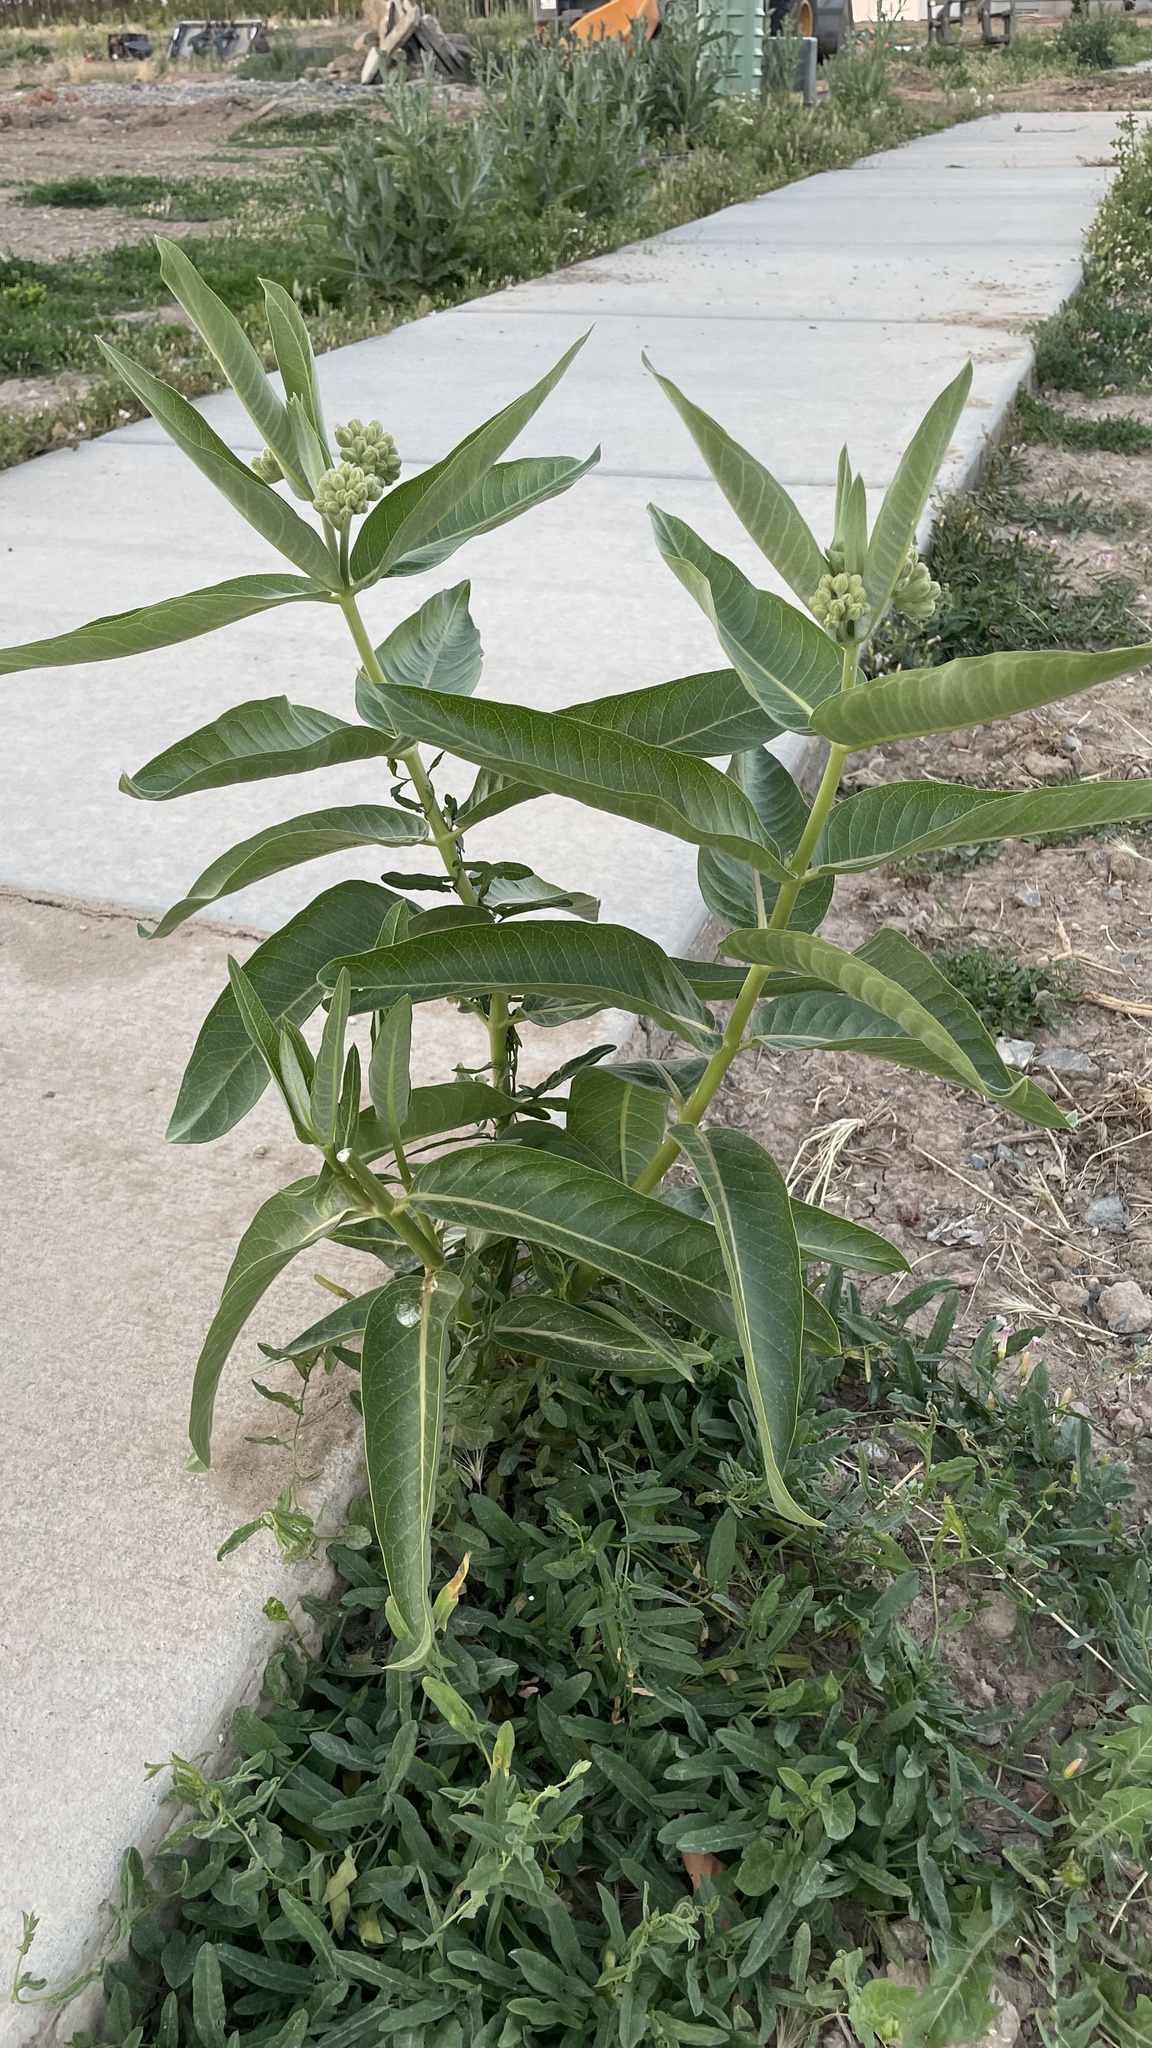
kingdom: Plantae
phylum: Tracheophyta
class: Magnoliopsida
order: Gentianales
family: Apocynaceae
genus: Asclepias
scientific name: Asclepias speciosa
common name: Showy milkweed
